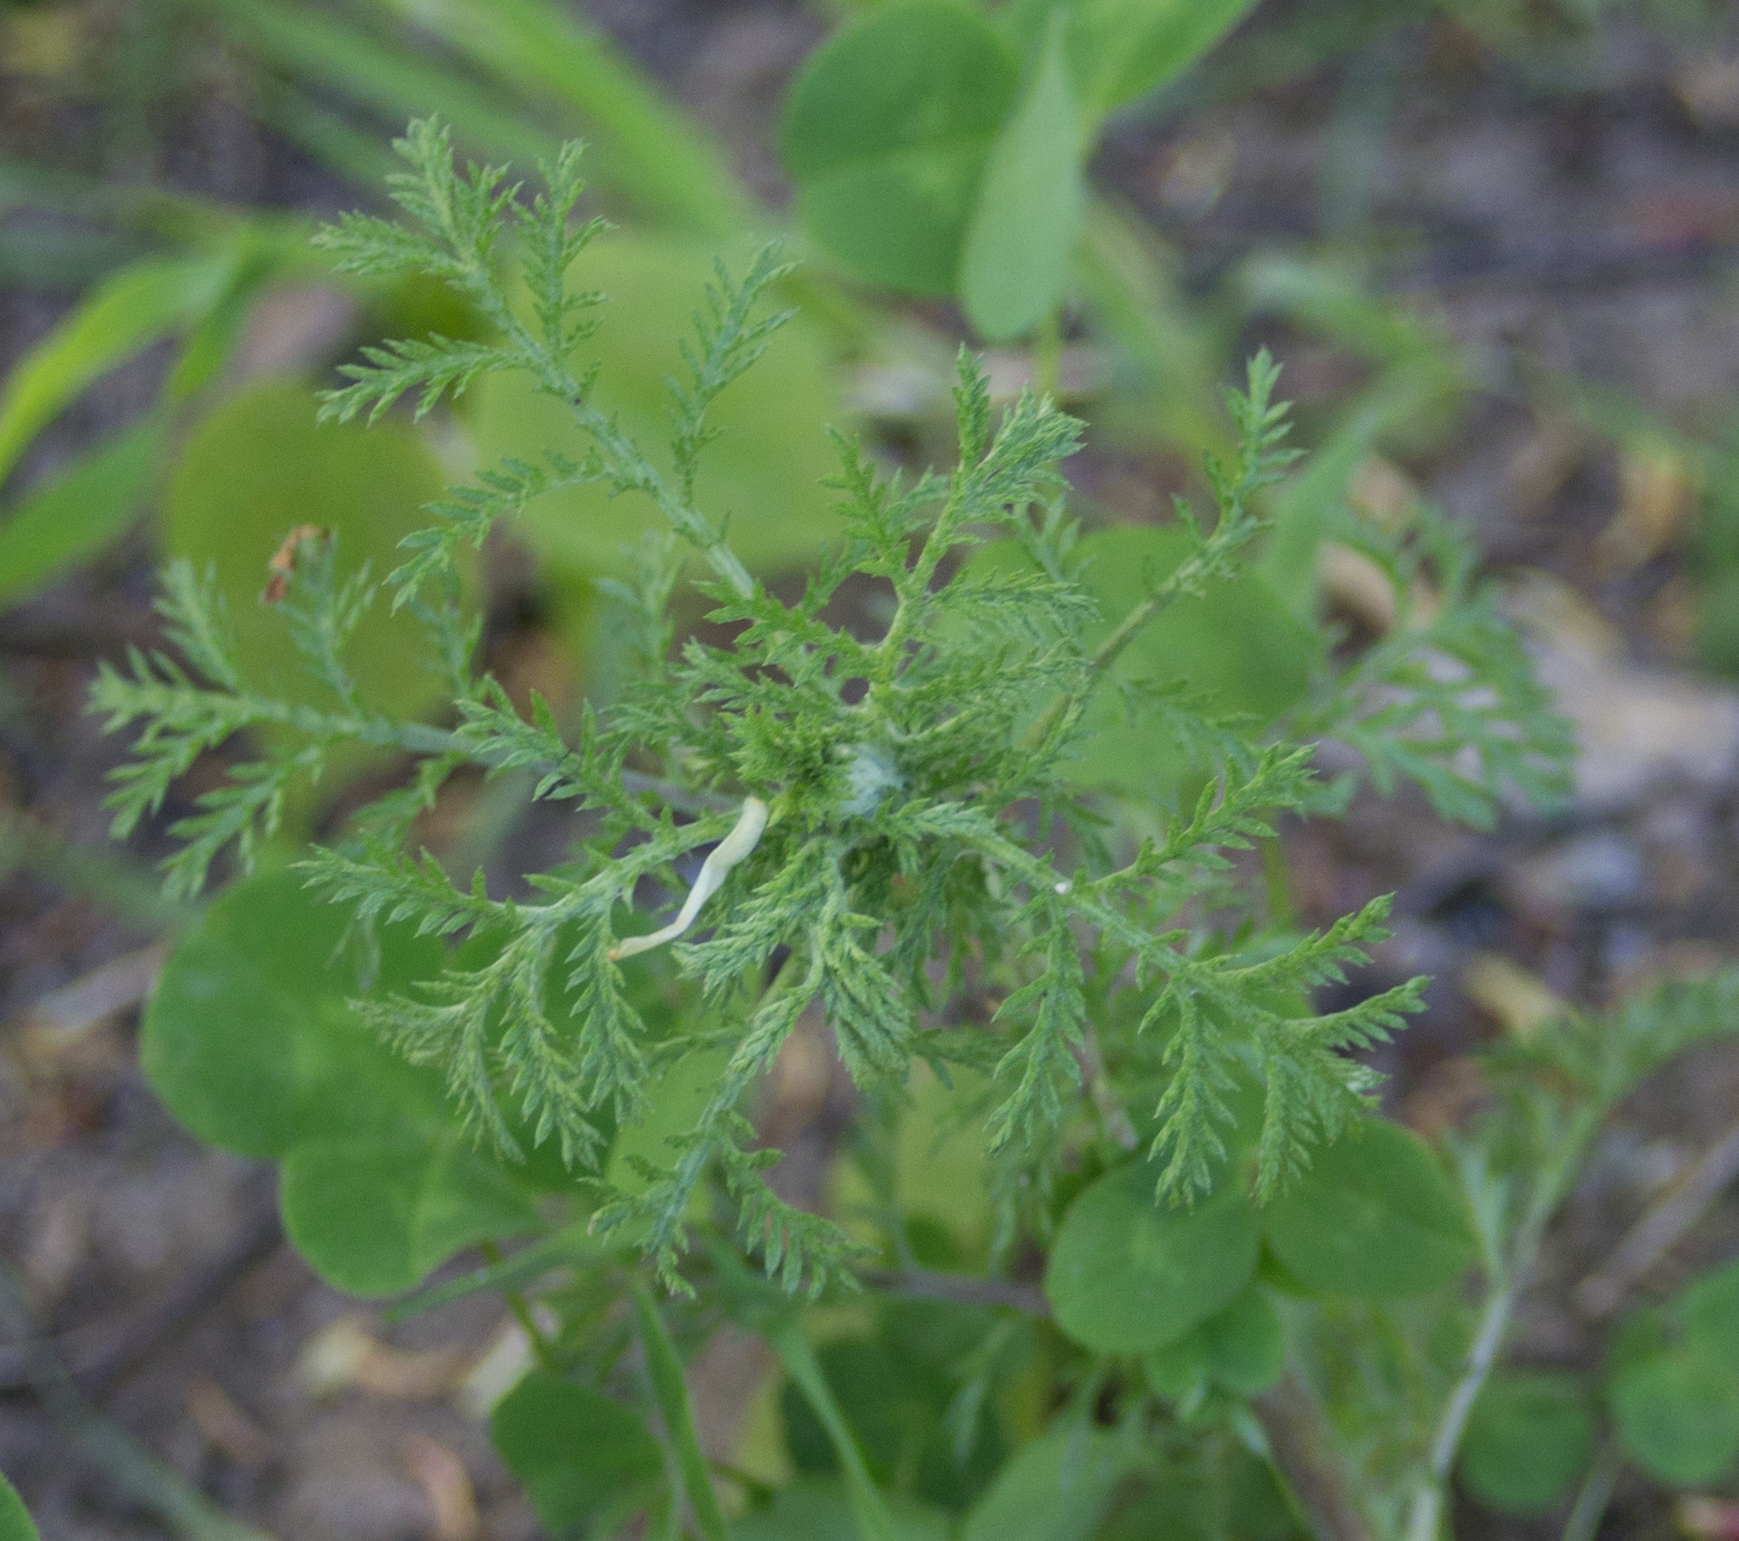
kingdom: Plantae
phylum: Tracheophyta
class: Magnoliopsida
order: Asterales
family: Asteraceae
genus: Cota
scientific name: Cota tinctoria
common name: Golden chamomile
